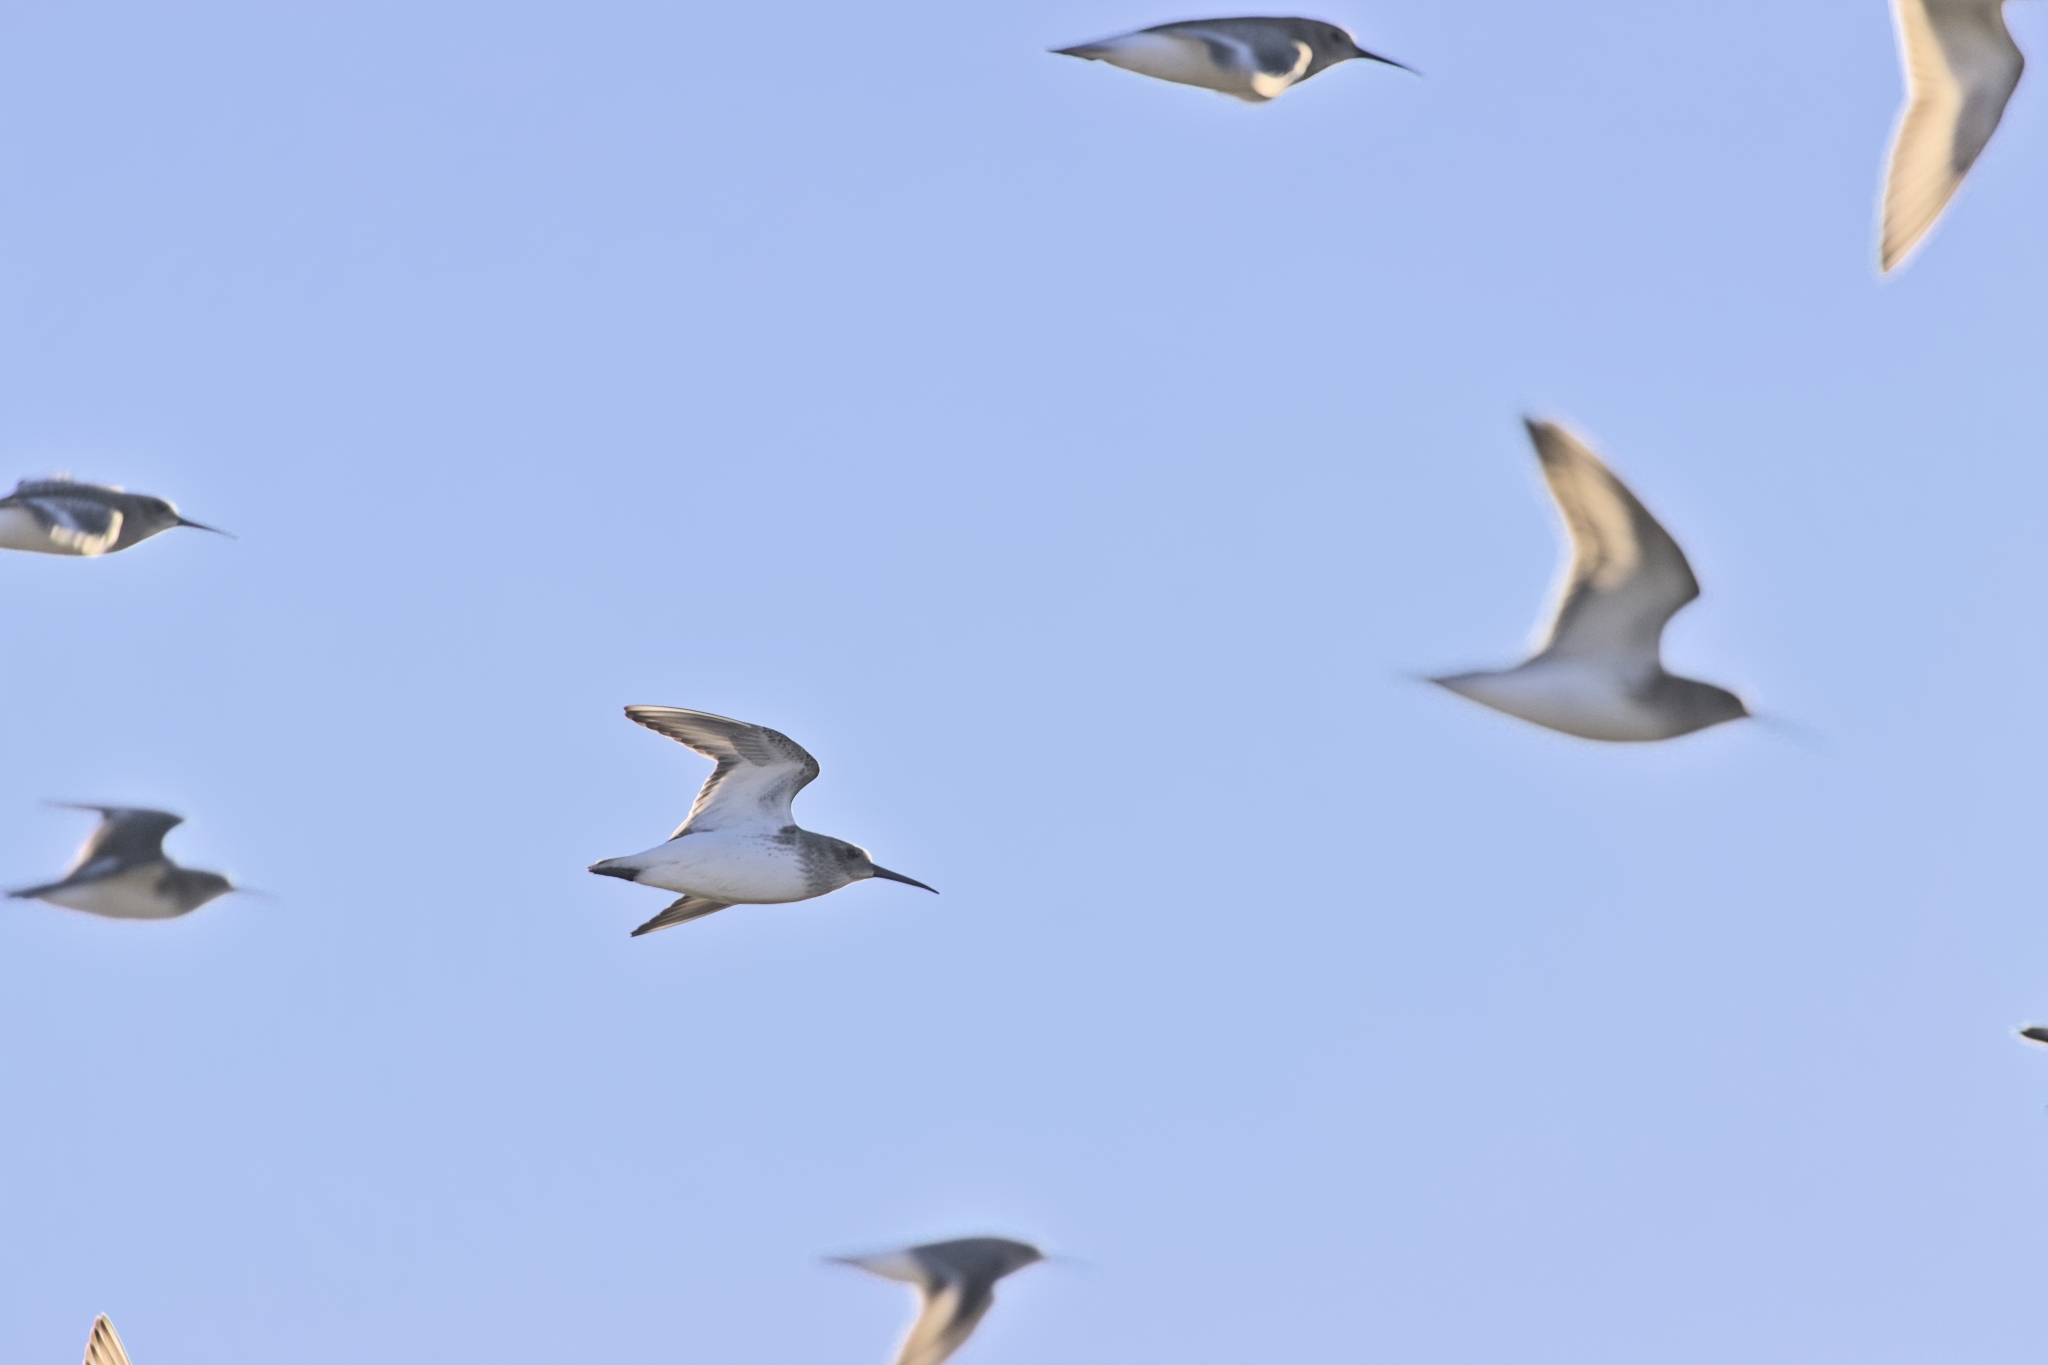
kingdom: Animalia
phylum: Chordata
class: Aves
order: Charadriiformes
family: Scolopacidae
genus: Calidris
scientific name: Calidris alpina
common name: Dunlin
